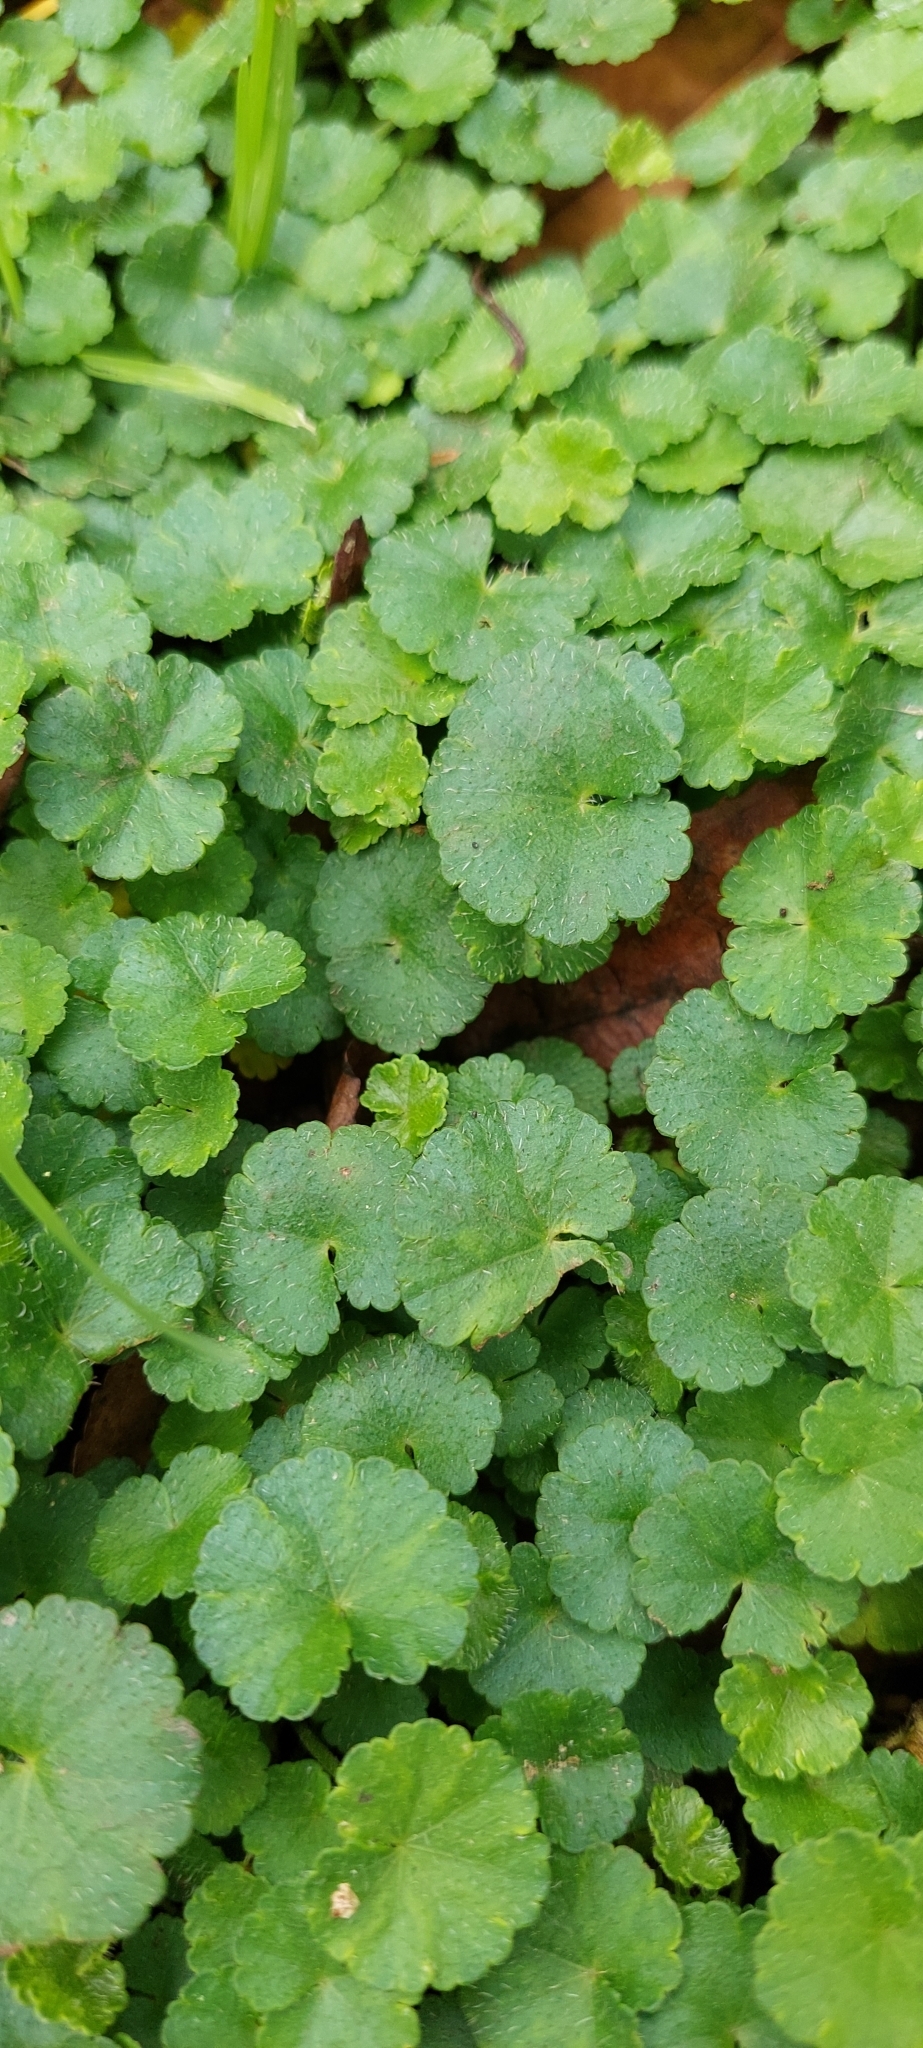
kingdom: Plantae
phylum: Tracheophyta
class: Magnoliopsida
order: Apiales
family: Araliaceae
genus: Hydrocotyle
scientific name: Hydrocotyle bonplandii
